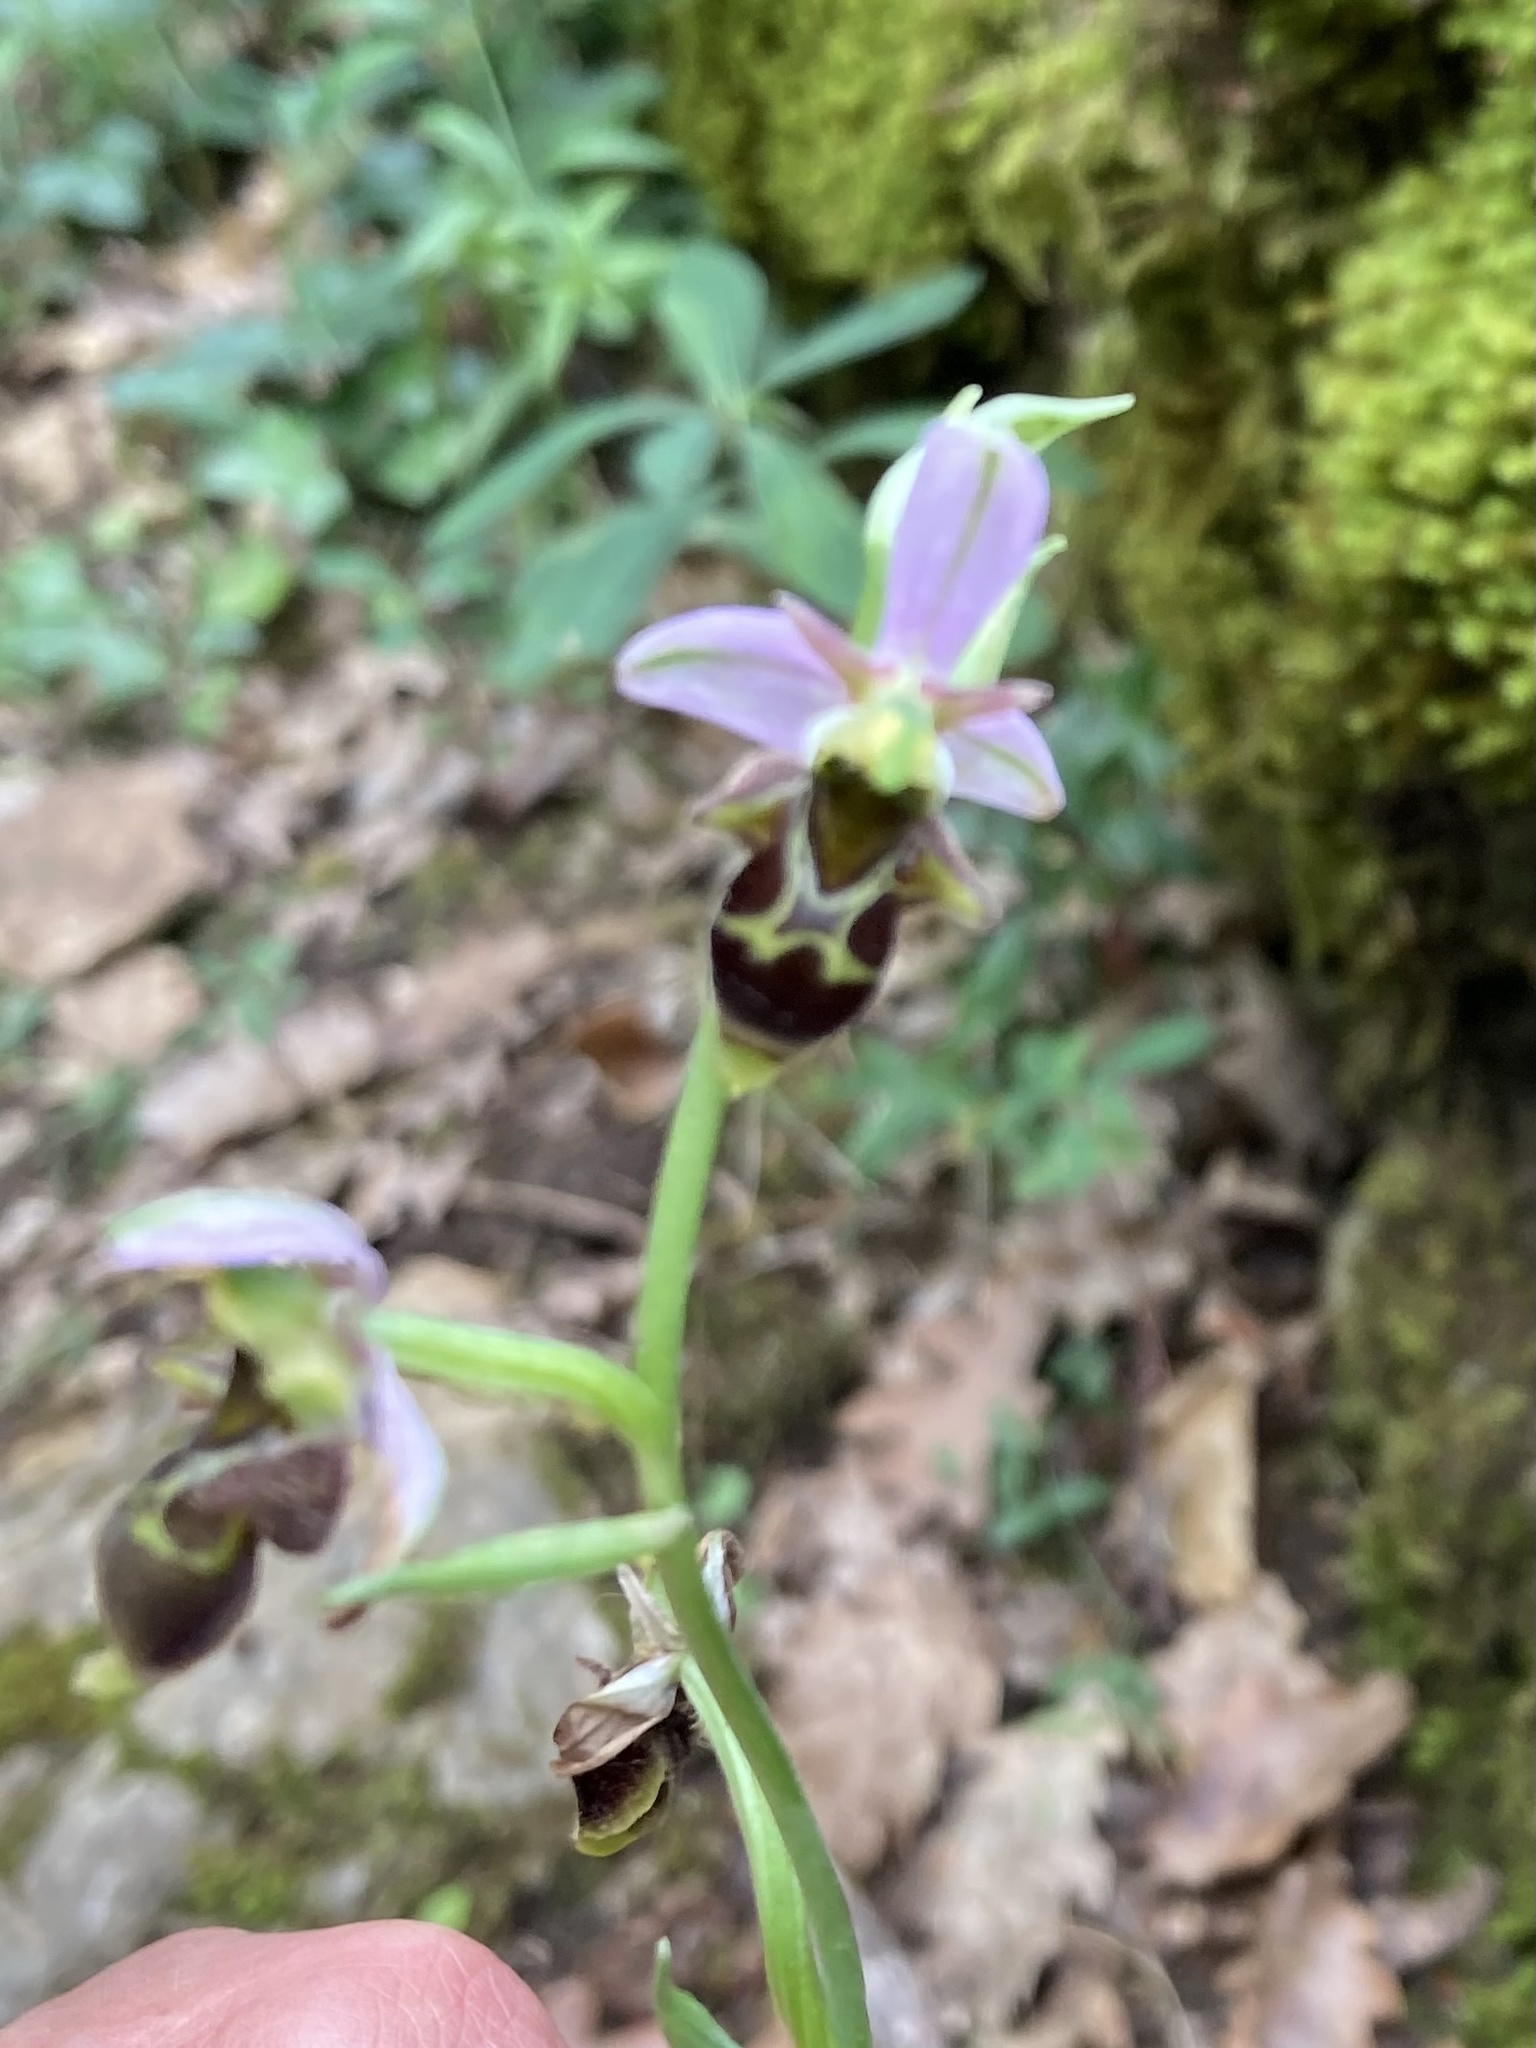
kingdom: Plantae
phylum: Tracheophyta
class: Liliopsida
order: Asparagales
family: Orchidaceae
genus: Ophrys
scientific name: Ophrys scolopax
